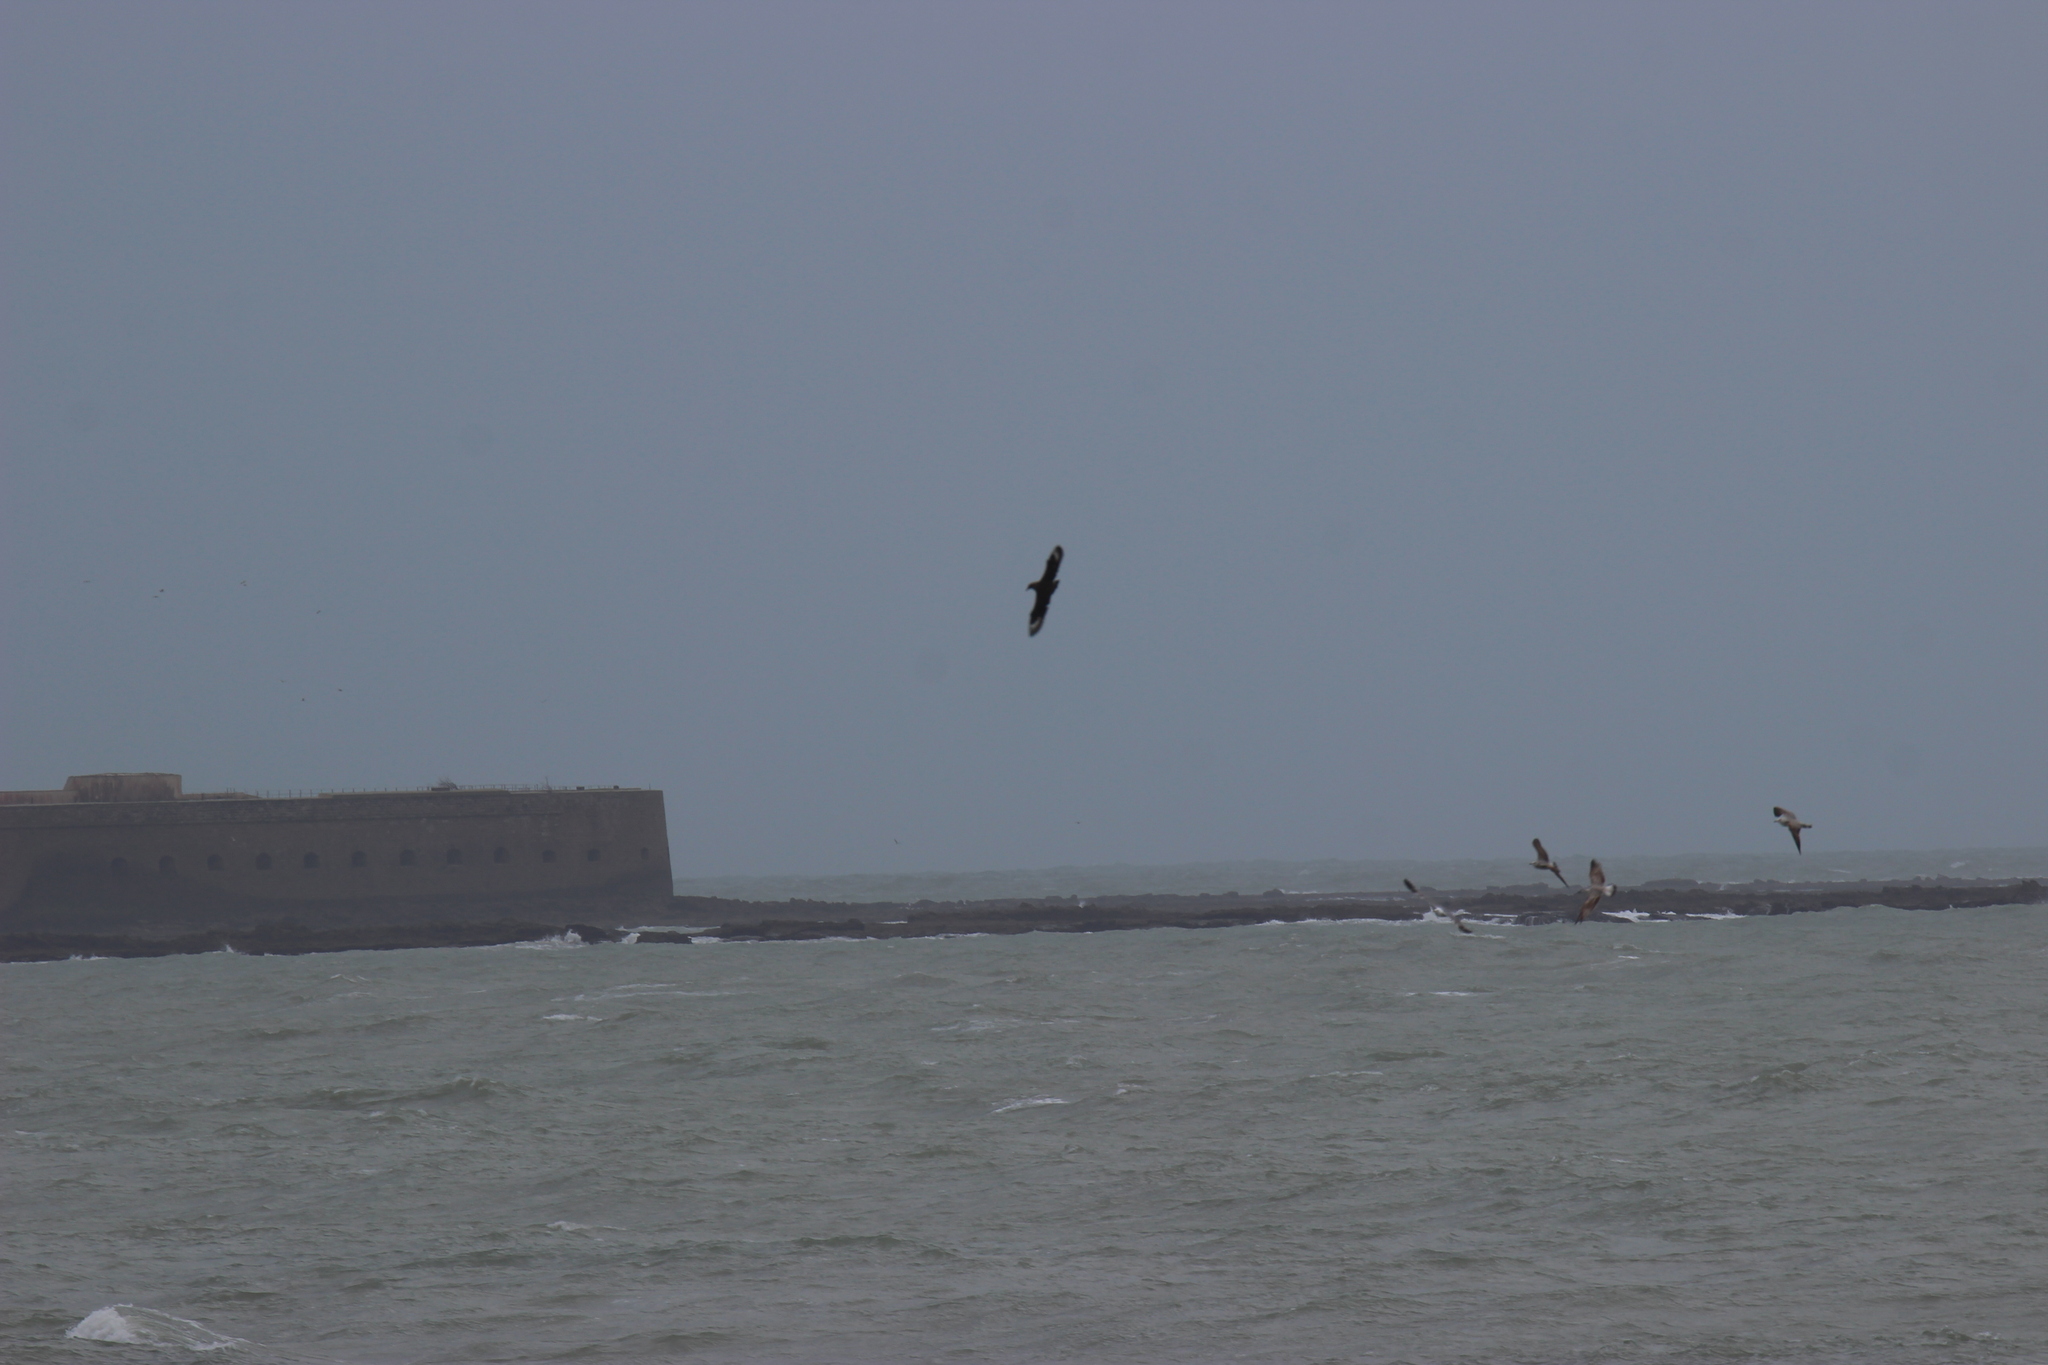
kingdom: Animalia
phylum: Chordata
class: Aves
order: Charadriiformes
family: Stercorariidae
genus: Stercorarius
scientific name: Stercorarius skua
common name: Great skua
